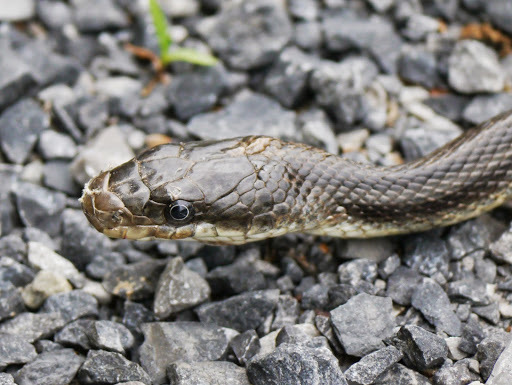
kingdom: Animalia
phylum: Chordata
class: Squamata
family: Colubridae
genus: Pantherophis
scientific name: Pantherophis spiloides
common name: Gray rat snake
